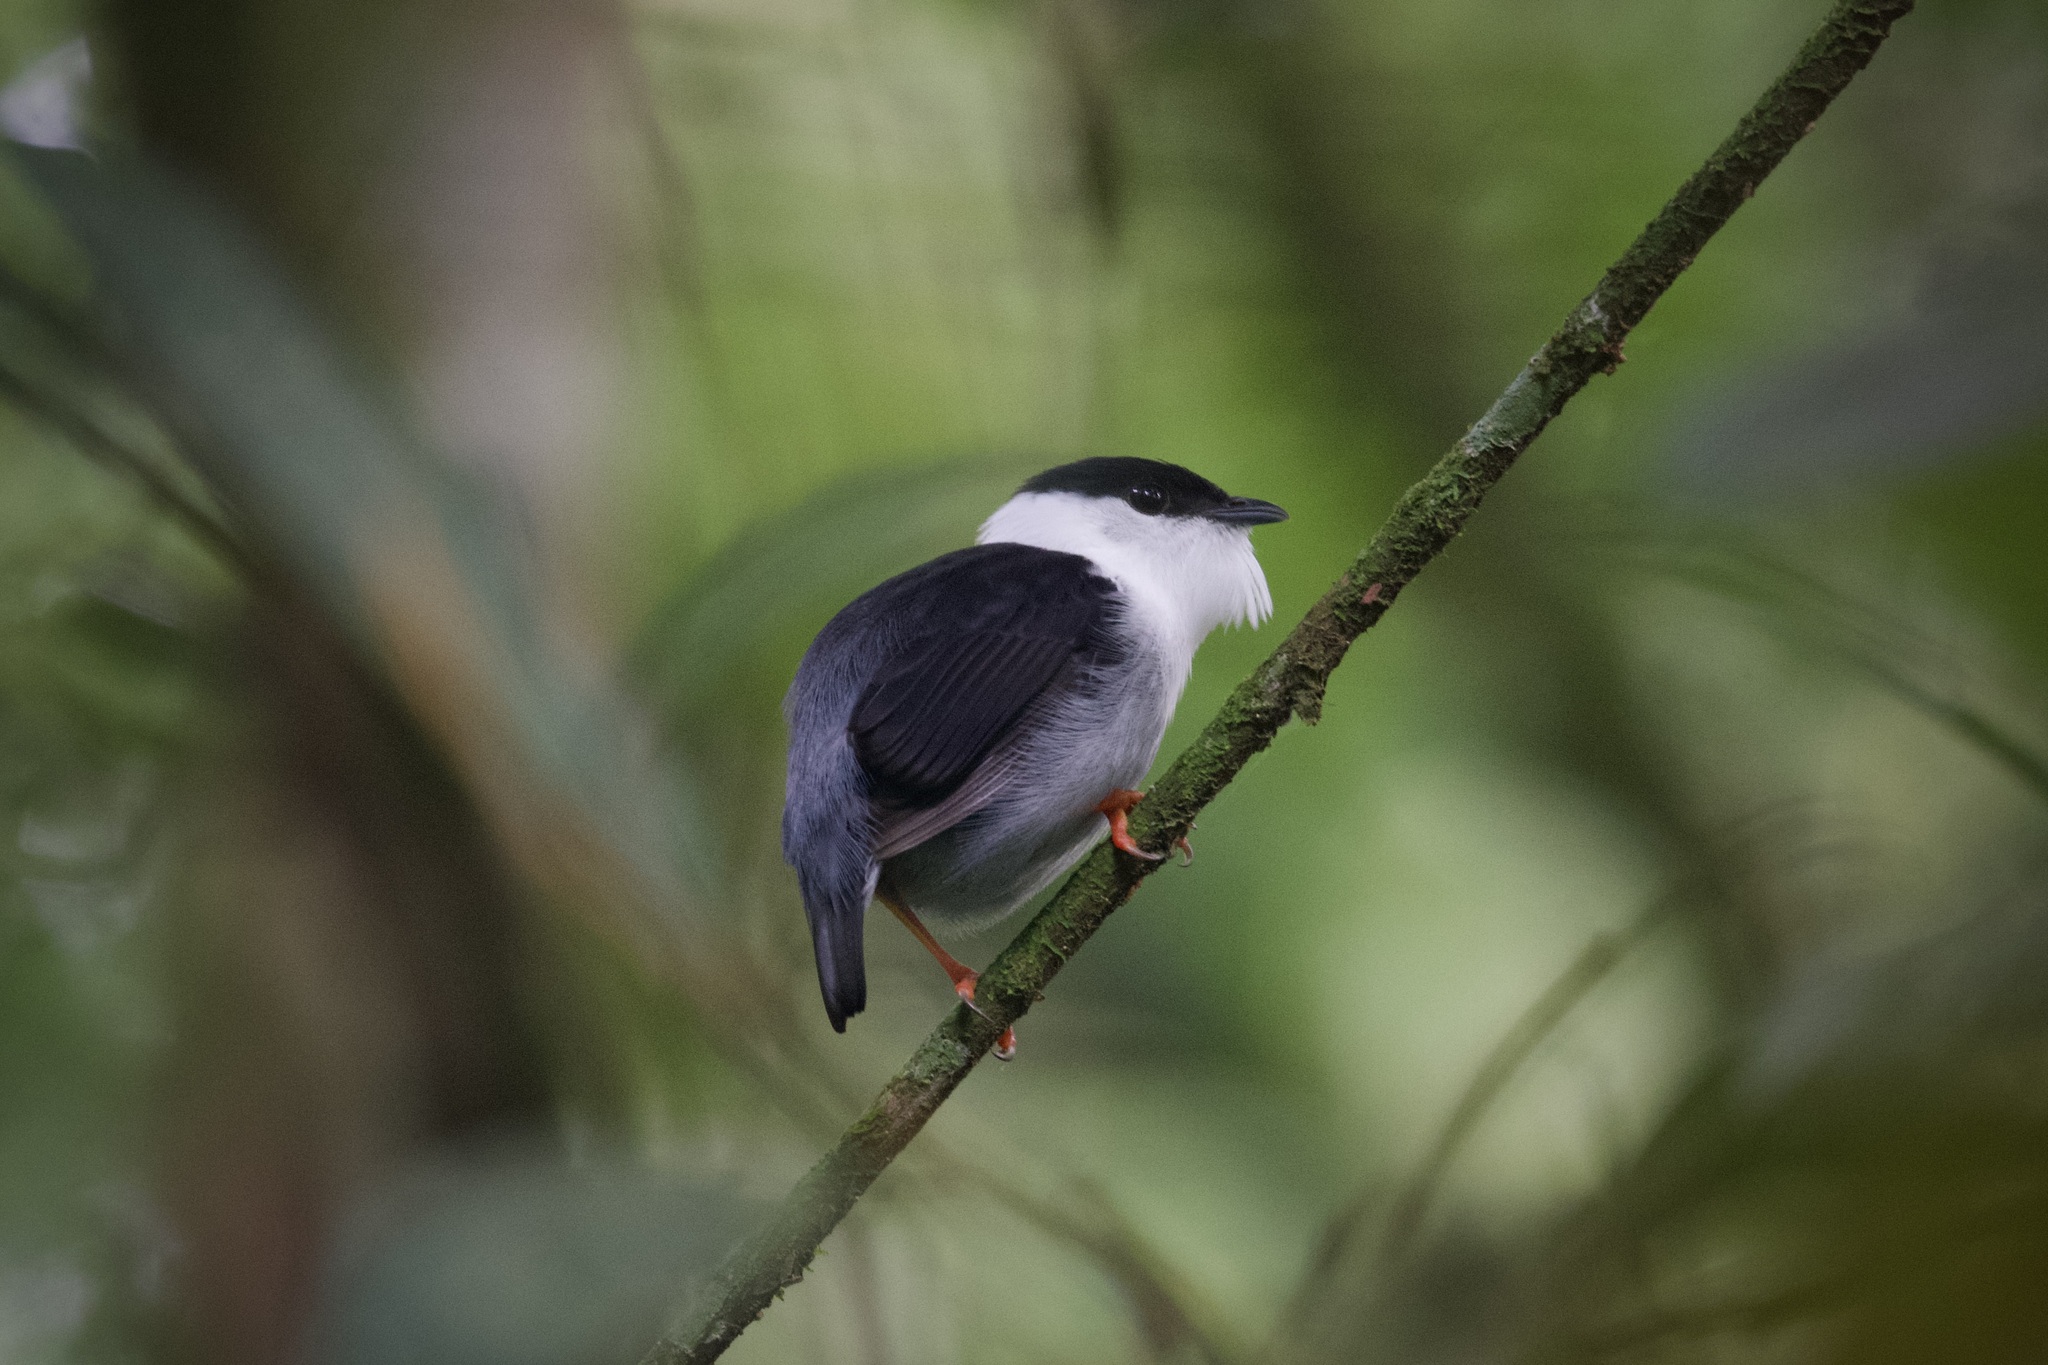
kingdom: Animalia
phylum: Chordata
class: Aves
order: Passeriformes
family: Pipridae
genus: Manacus
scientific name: Manacus manacus
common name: White-bearded manakin
